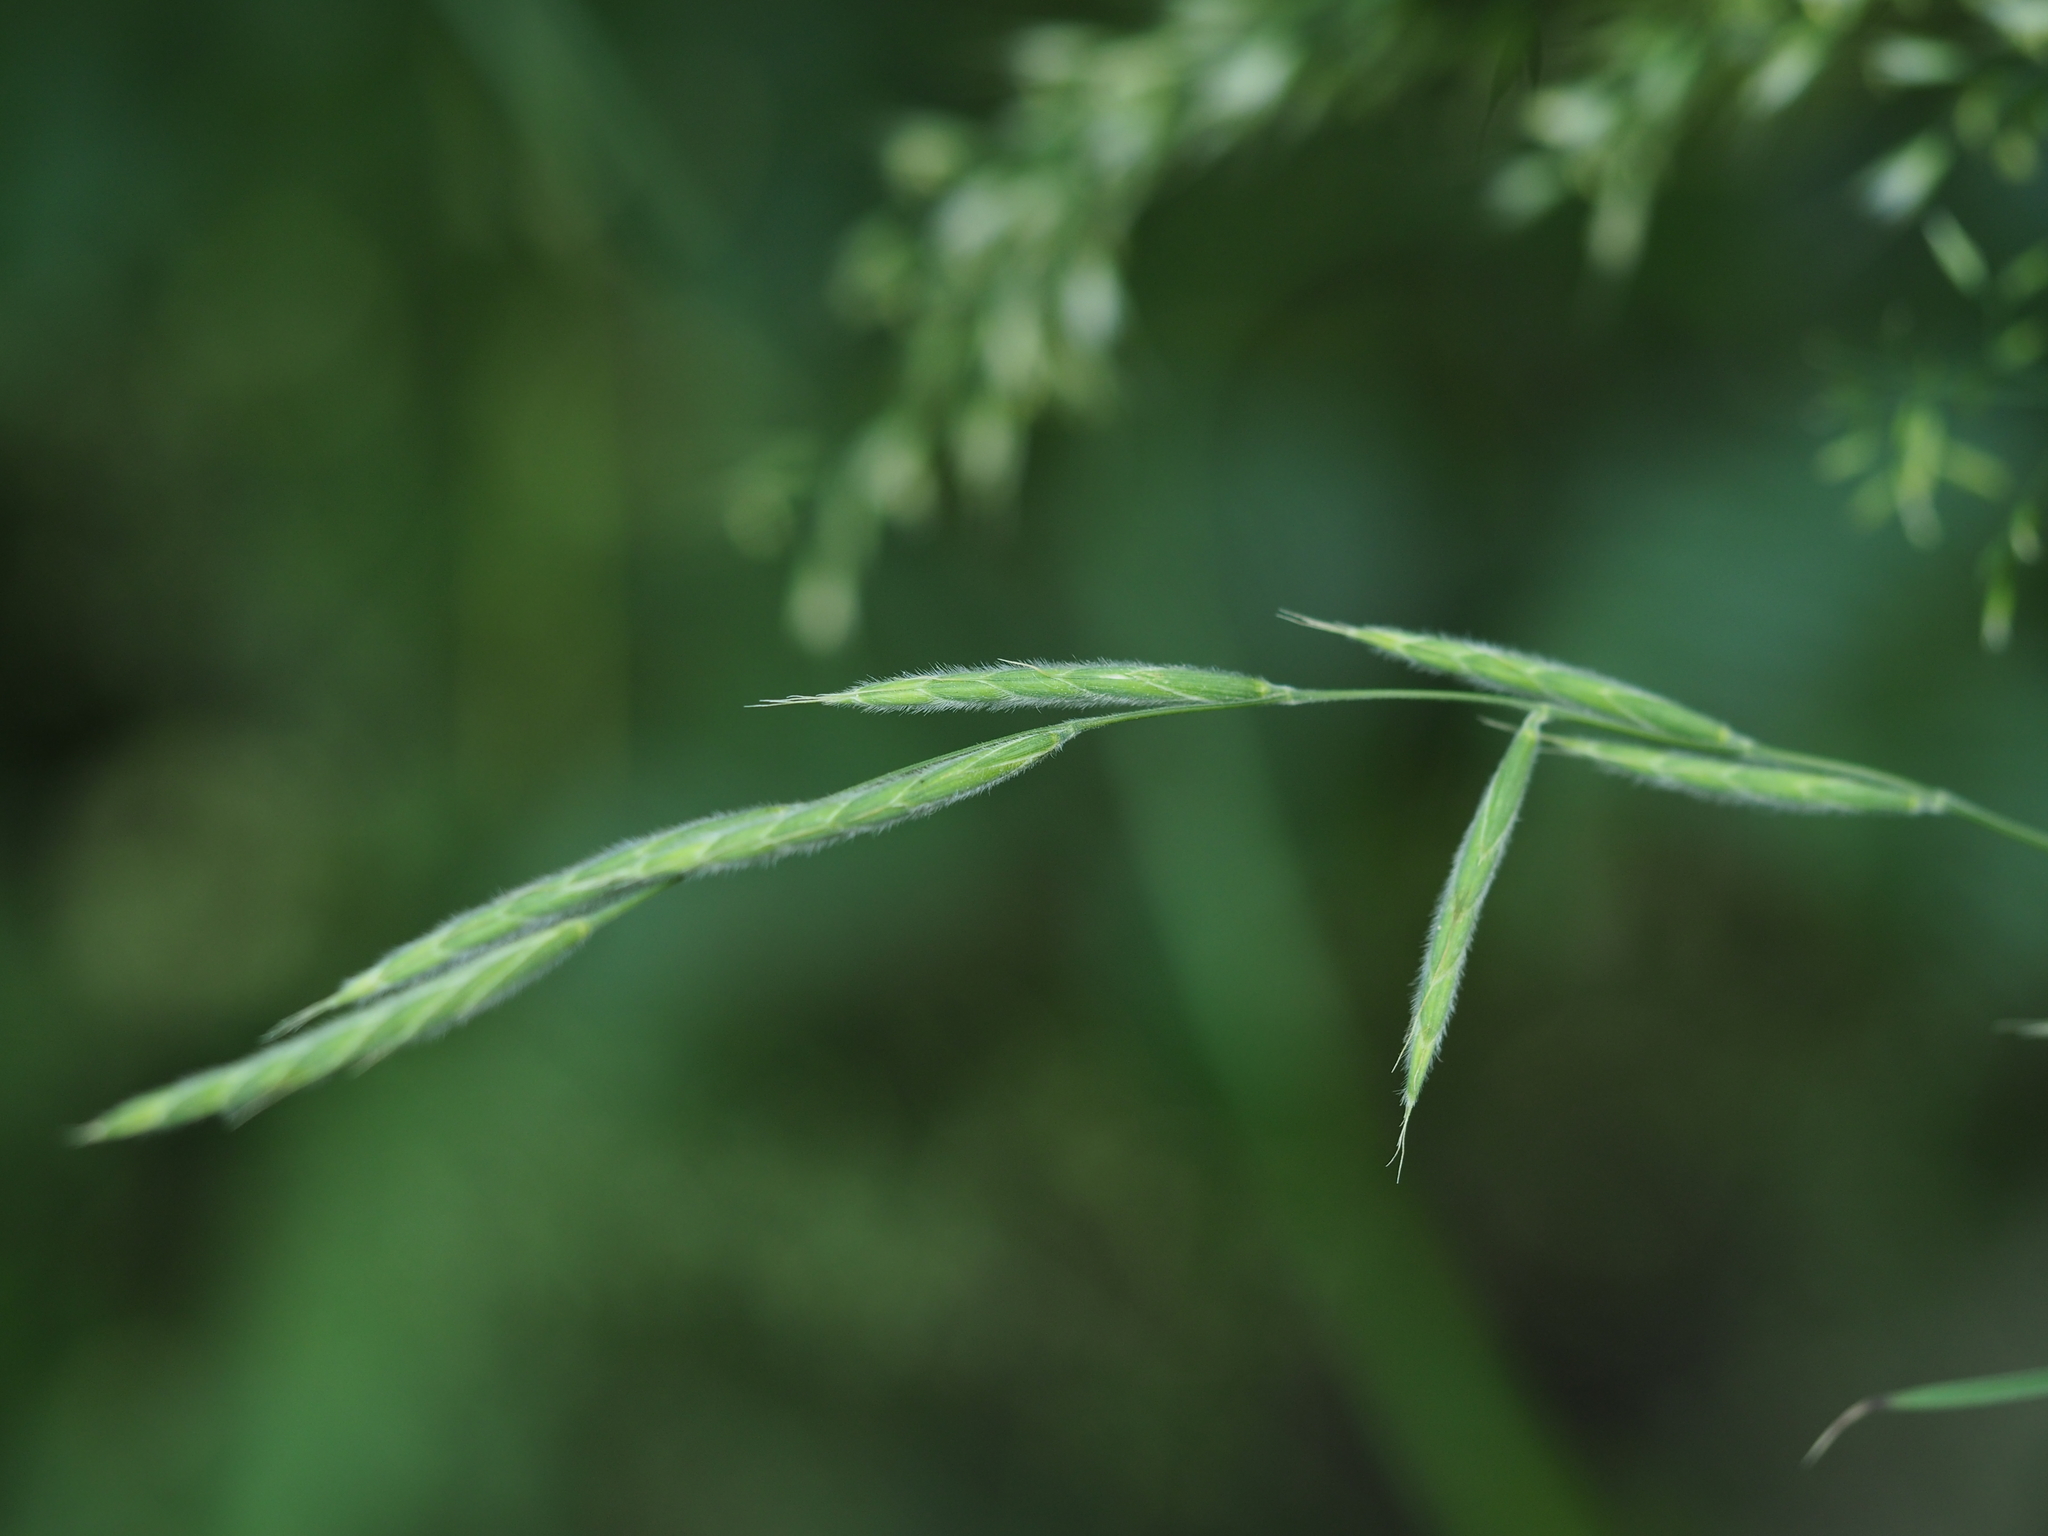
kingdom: Plantae
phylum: Tracheophyta
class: Liliopsida
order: Poales
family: Poaceae
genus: Brachypodium
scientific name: Brachypodium pinnatum
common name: Tor grass
